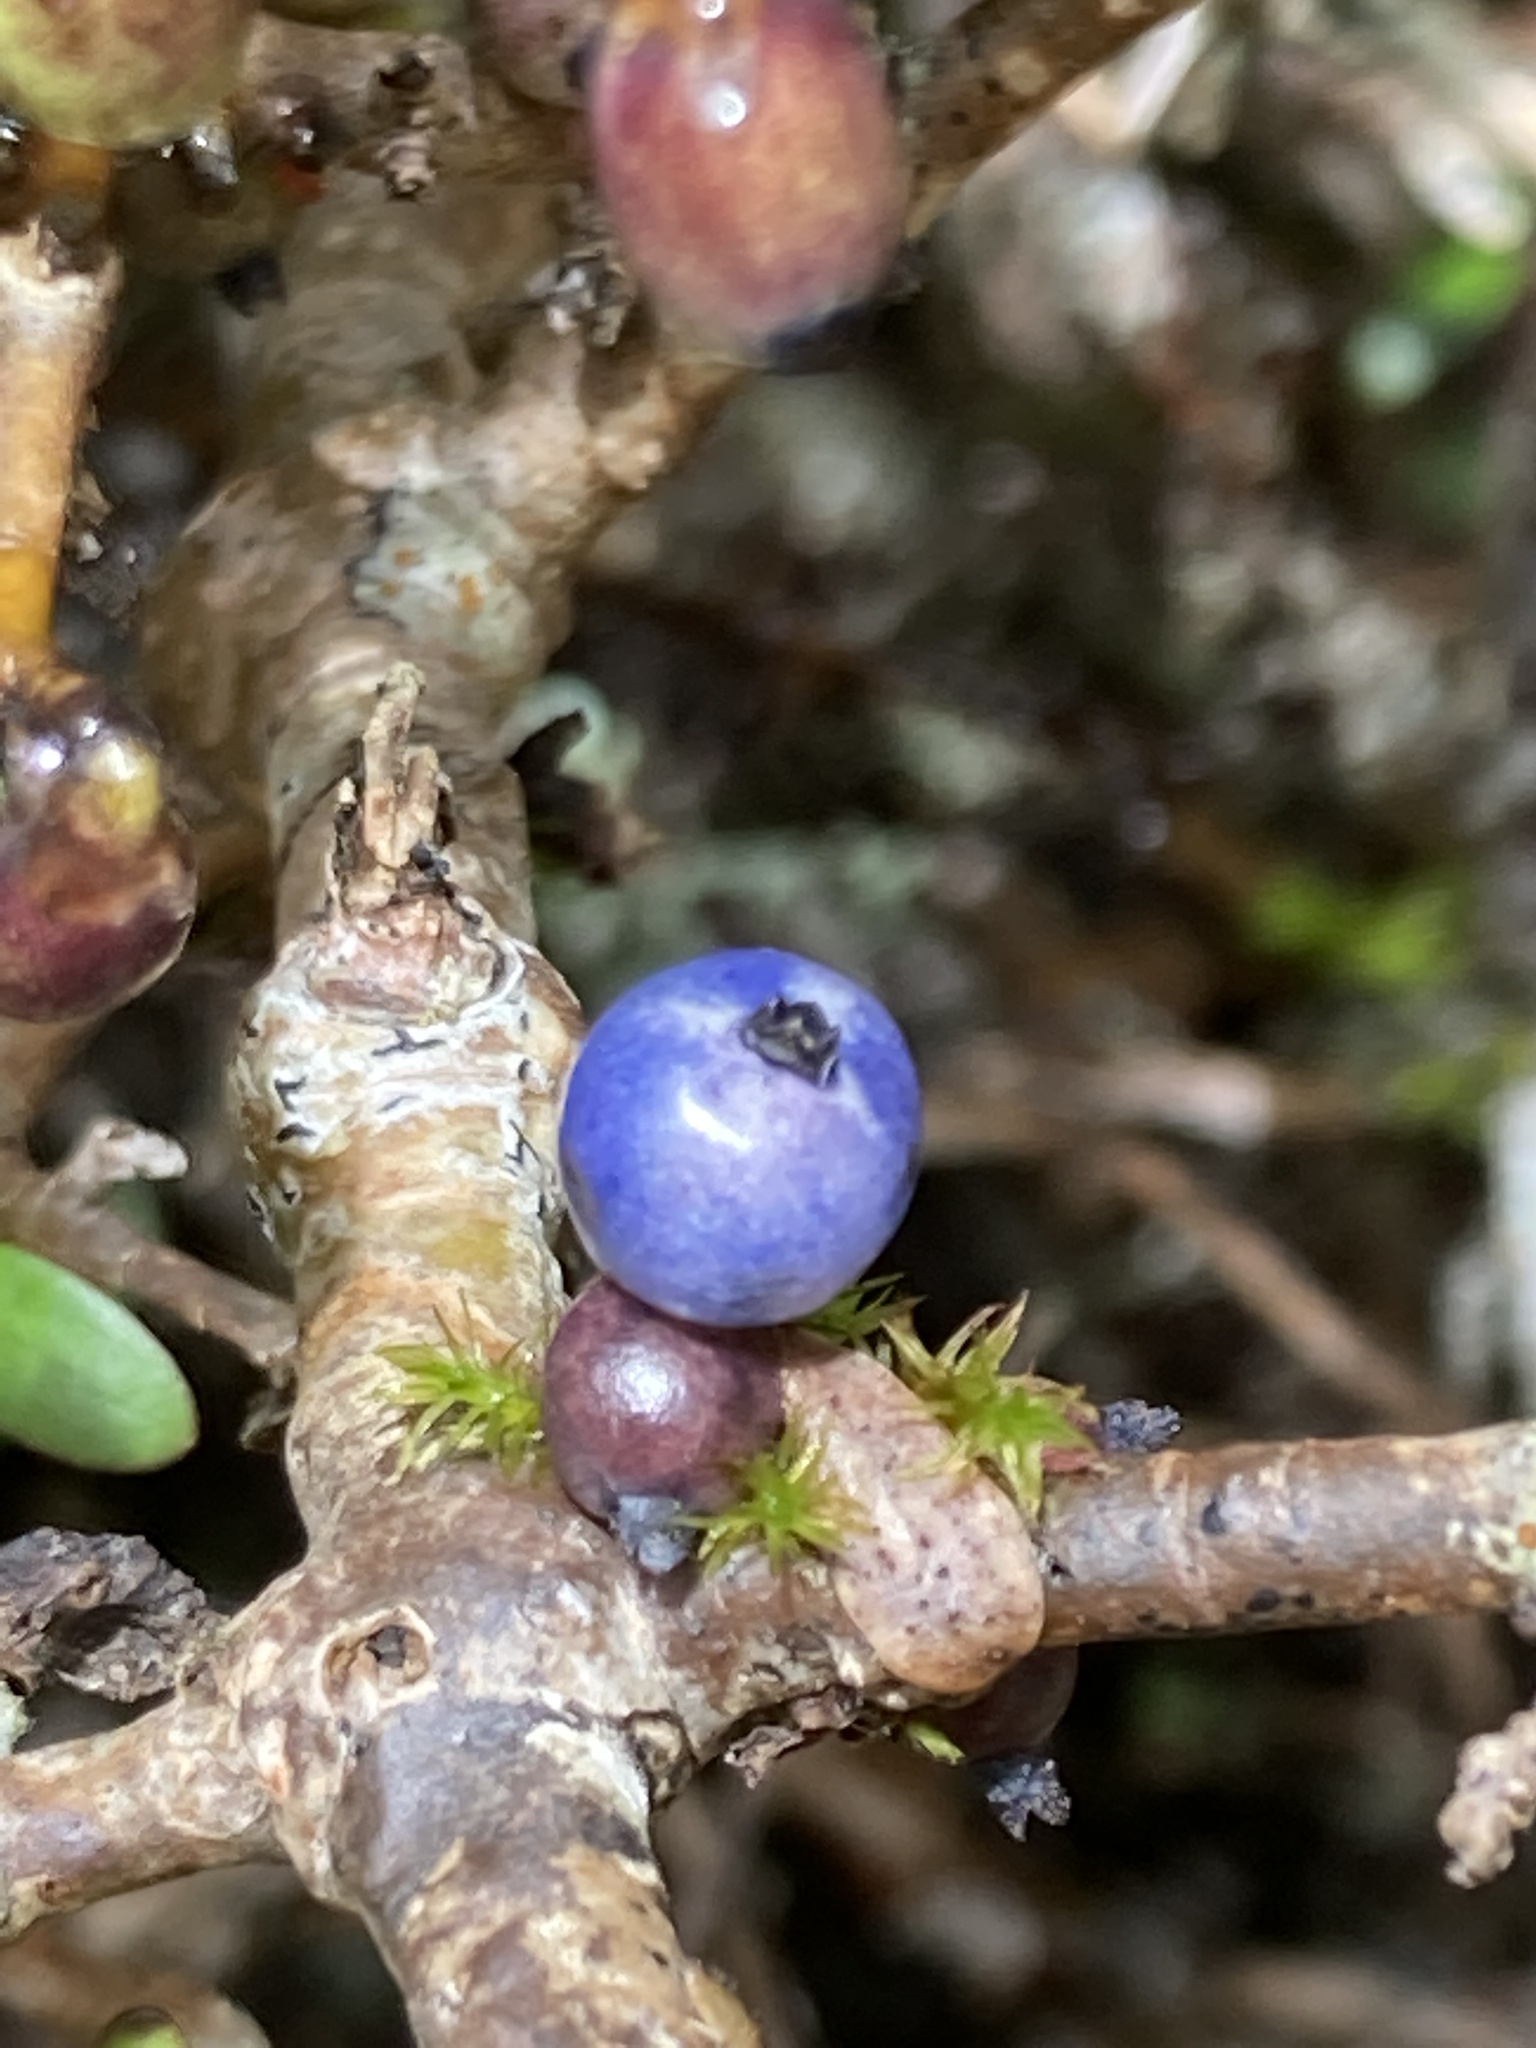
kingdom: Plantae
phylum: Tracheophyta
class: Magnoliopsida
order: Malpighiales
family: Violaceae
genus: Melicytus
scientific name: Melicytus alpinus
